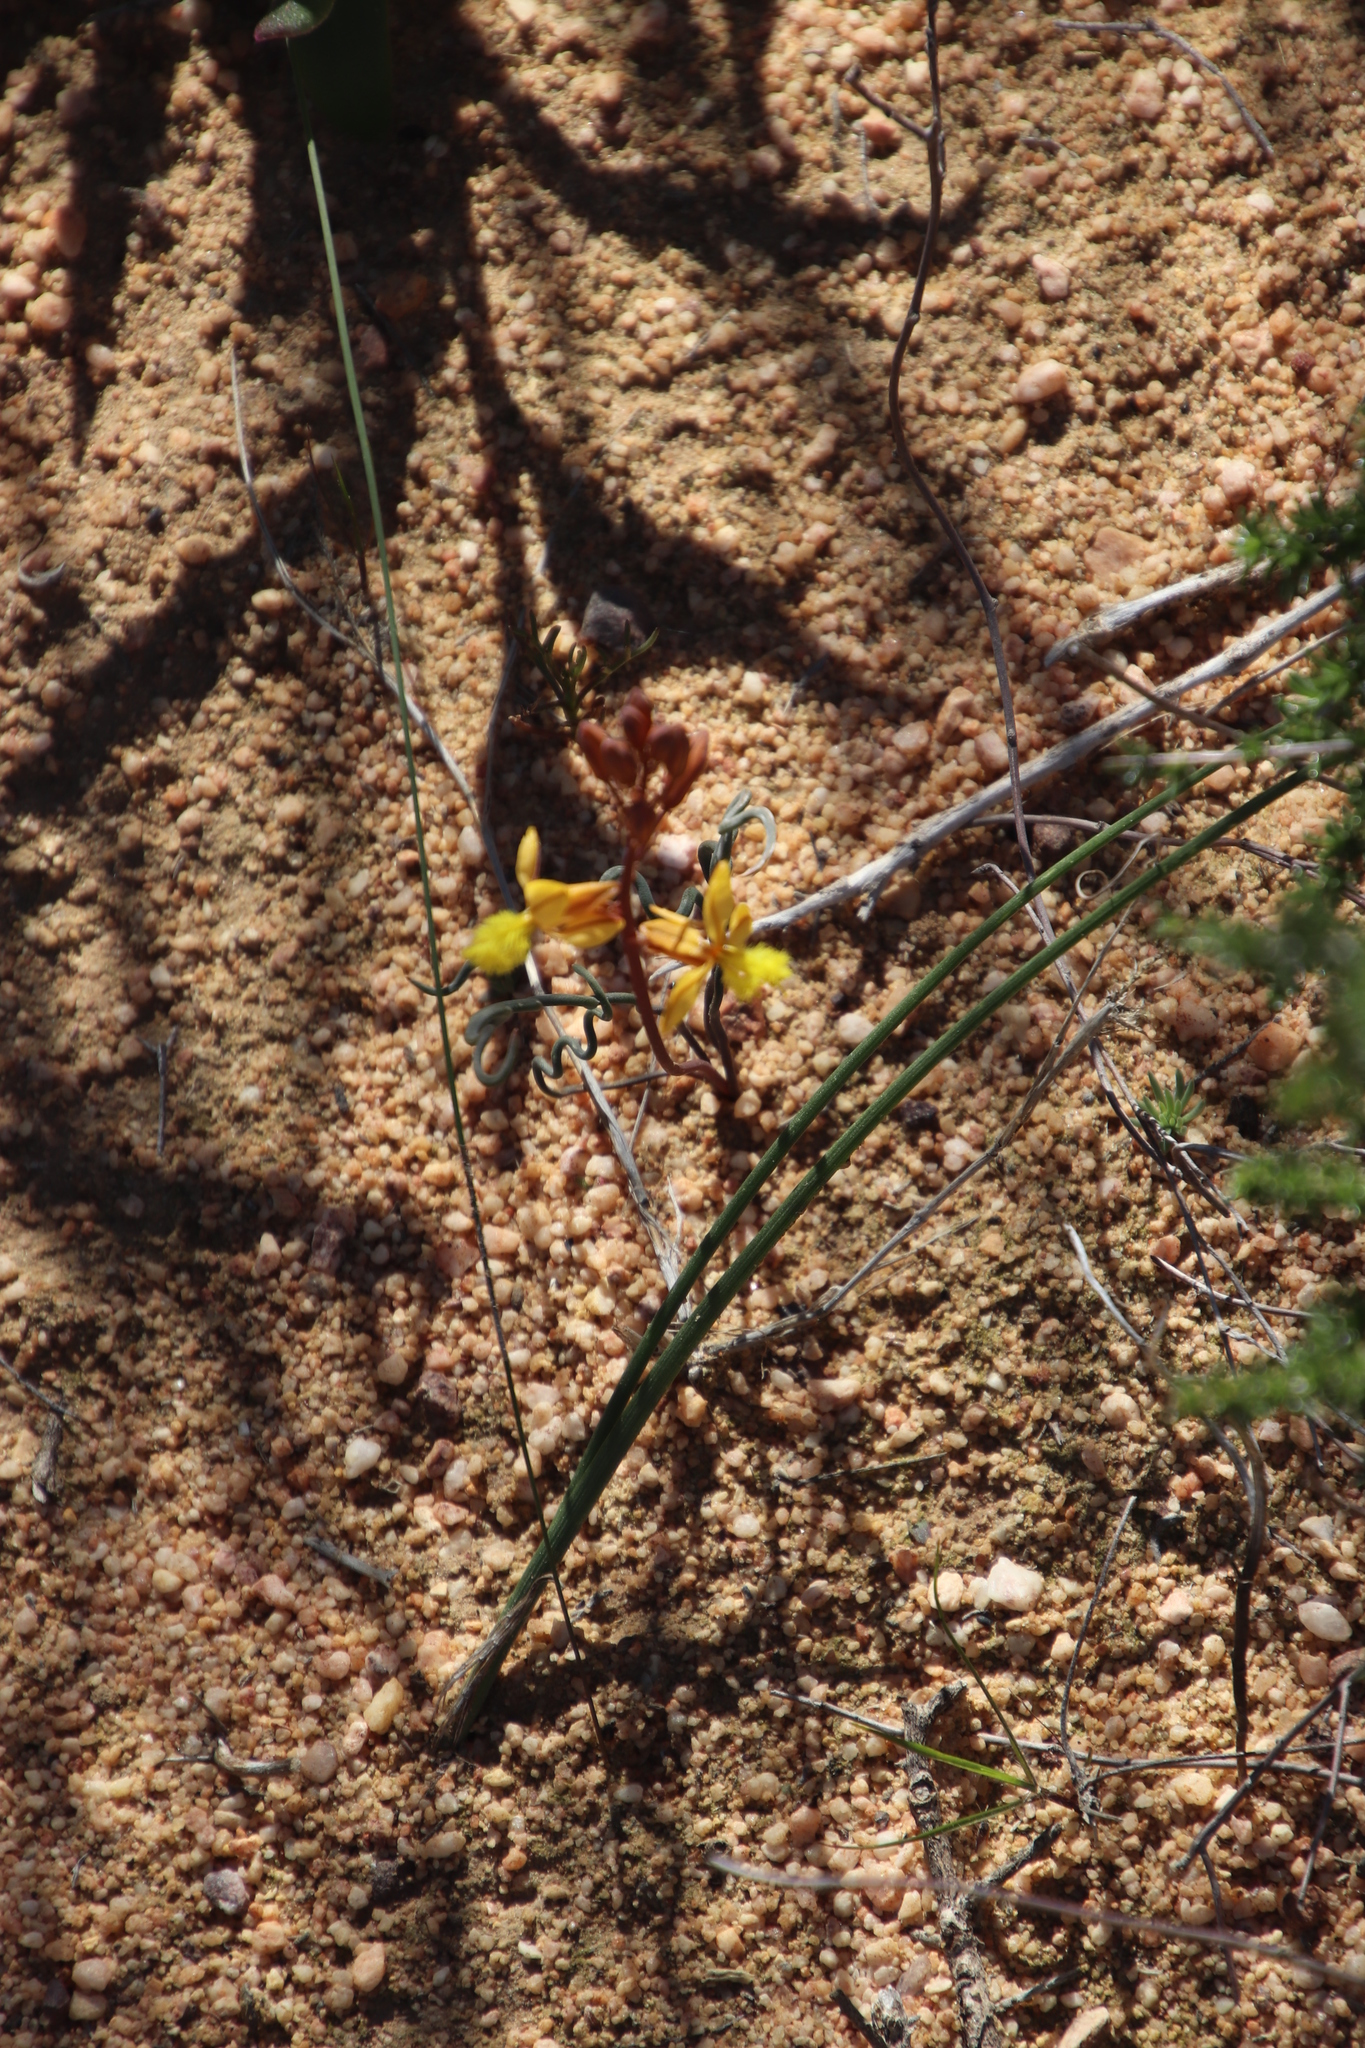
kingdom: Plantae
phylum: Tracheophyta
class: Liliopsida
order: Asparagales
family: Asphodelaceae
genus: Bulbine
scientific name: Bulbine torta
